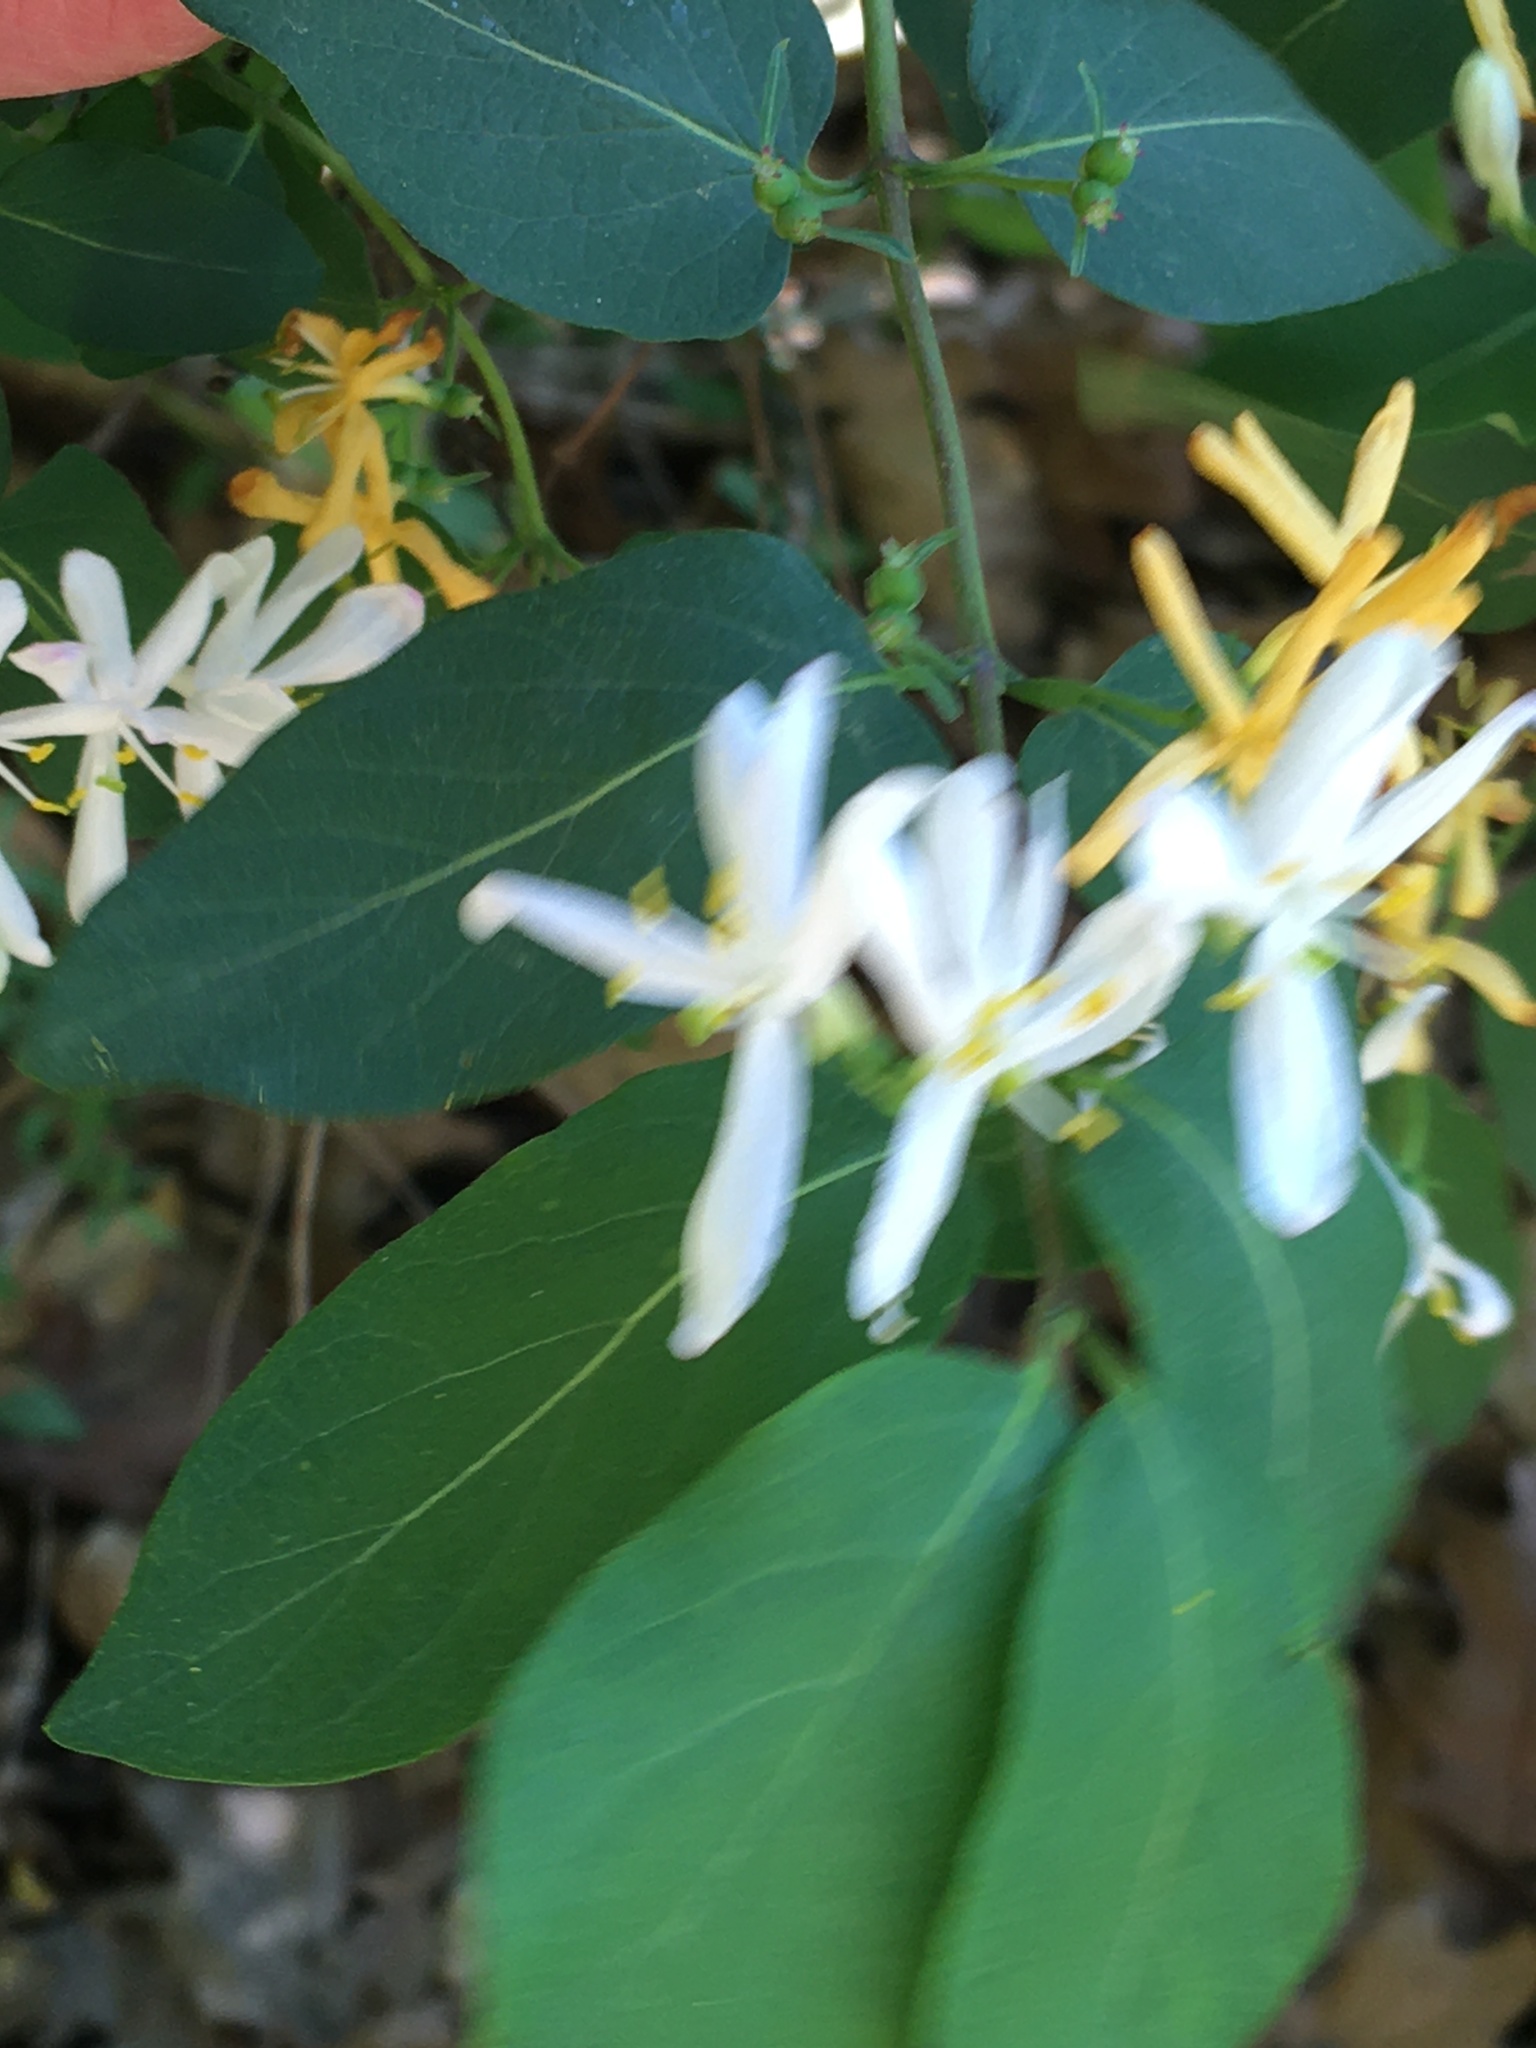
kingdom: Plantae
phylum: Tracheophyta
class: Magnoliopsida
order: Dipsacales
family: Caprifoliaceae
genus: Lonicera
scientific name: Lonicera morrowii
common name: Morrow's honeysuckle
